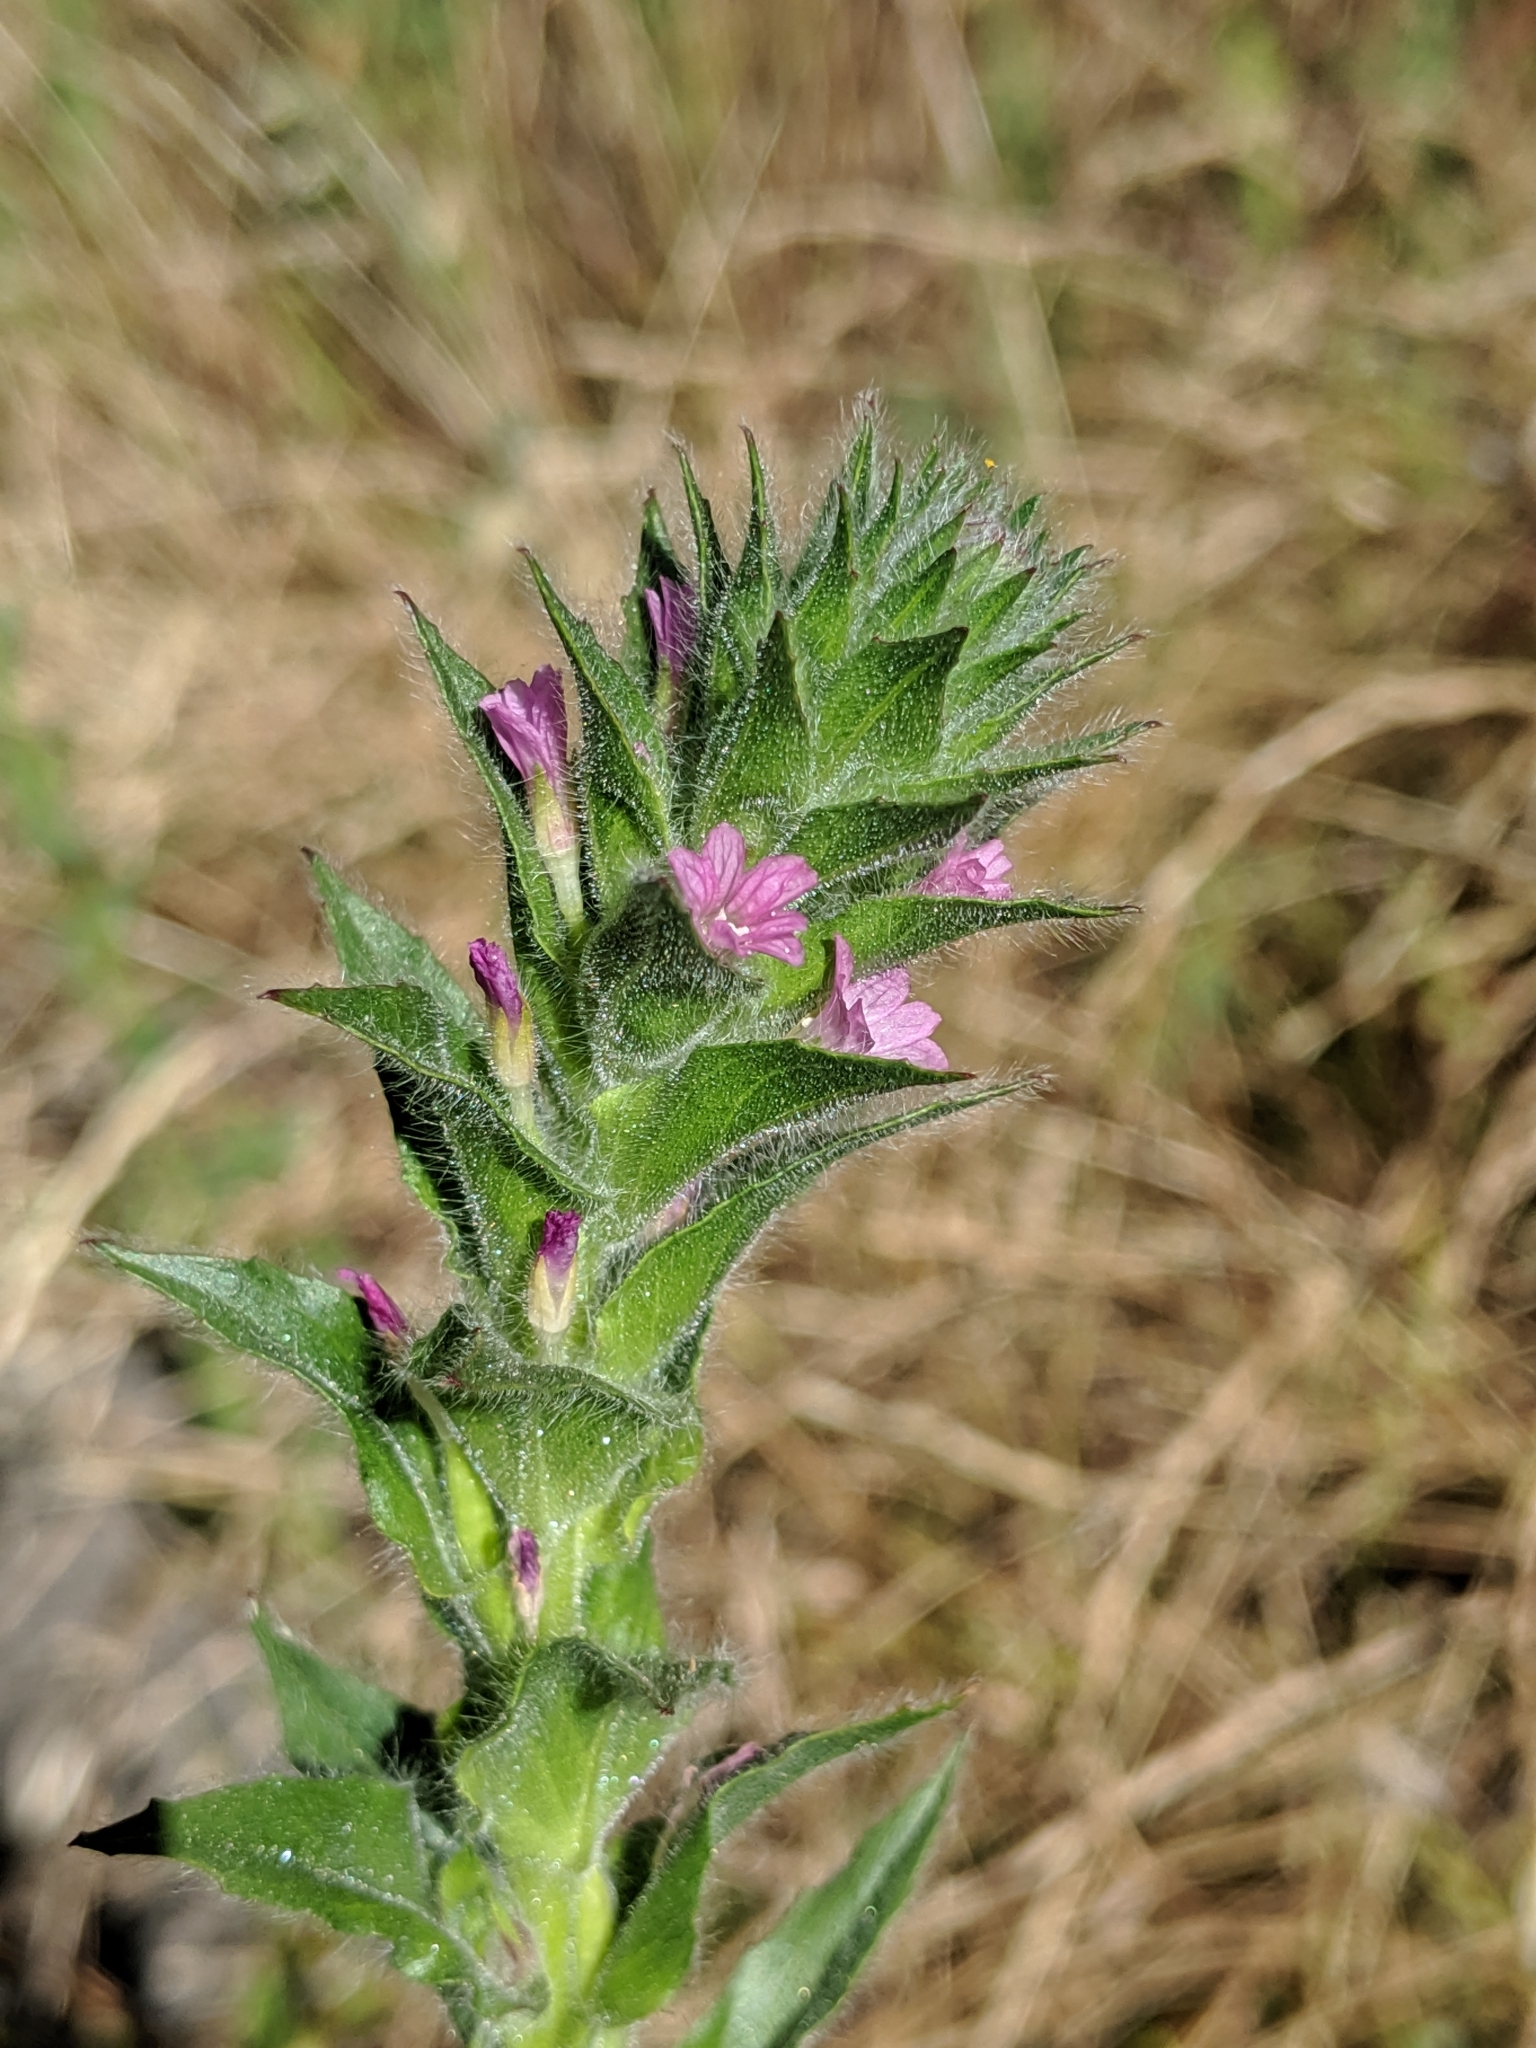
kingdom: Plantae
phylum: Tracheophyta
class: Magnoliopsida
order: Myrtales
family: Onagraceae
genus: Epilobium
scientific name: Epilobium densiflorum
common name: Dense spike-primrose
